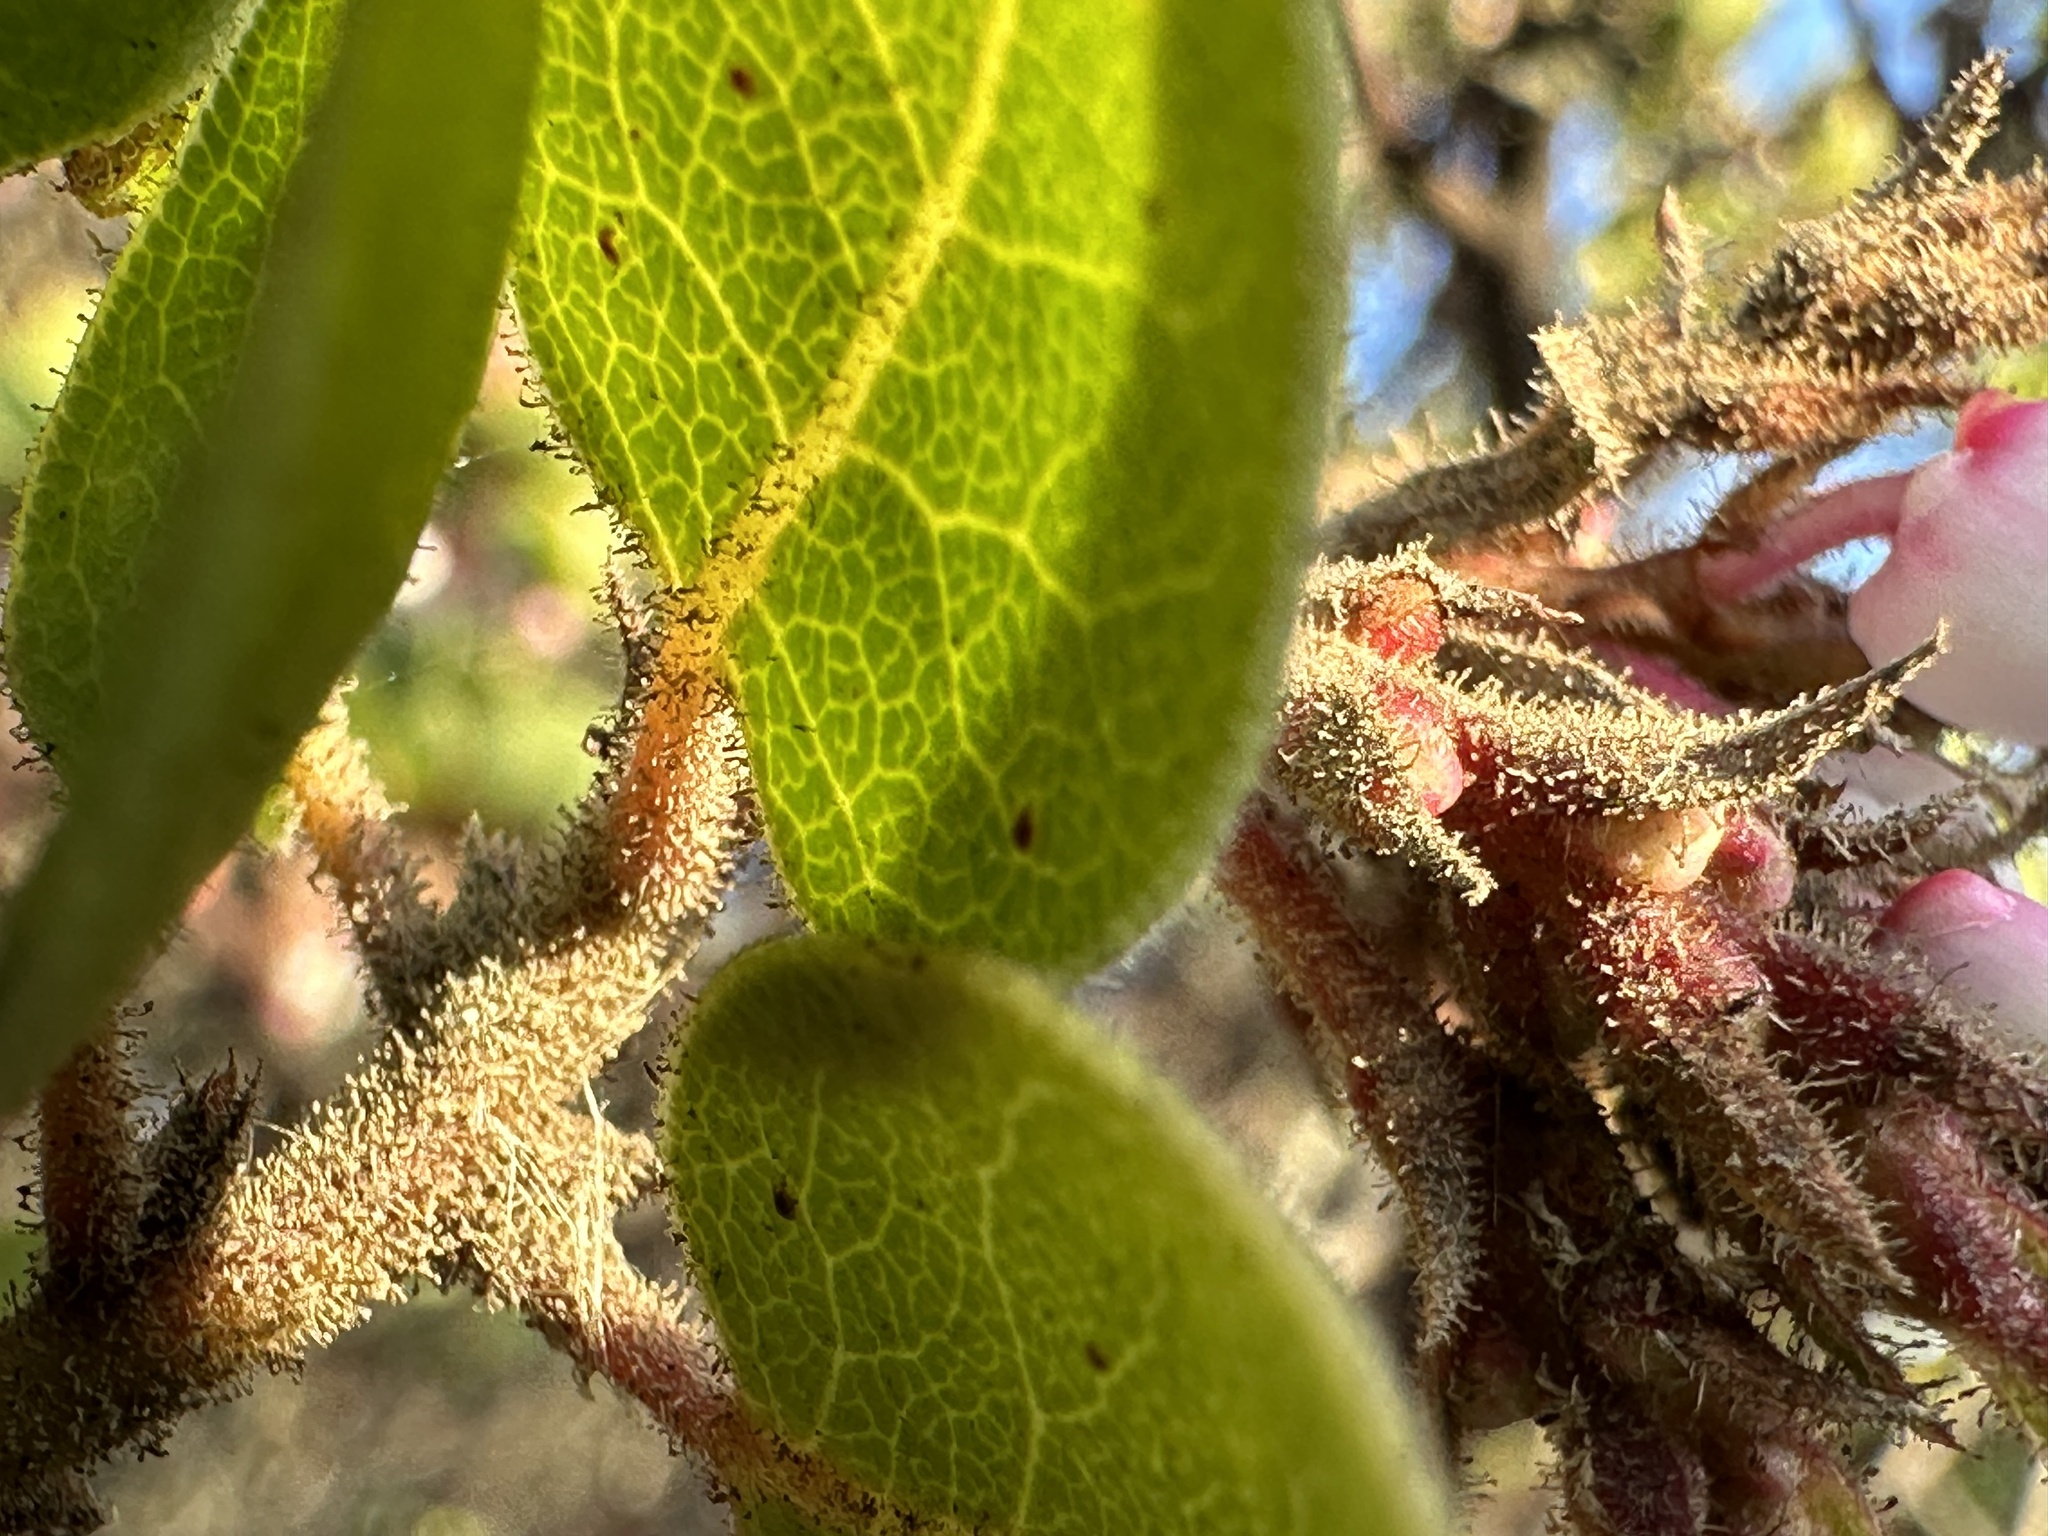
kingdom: Plantae
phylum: Tracheophyta
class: Magnoliopsida
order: Ericales
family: Ericaceae
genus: Arctostaphylos
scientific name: Arctostaphylos montereyensis
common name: Monterey manzanita
